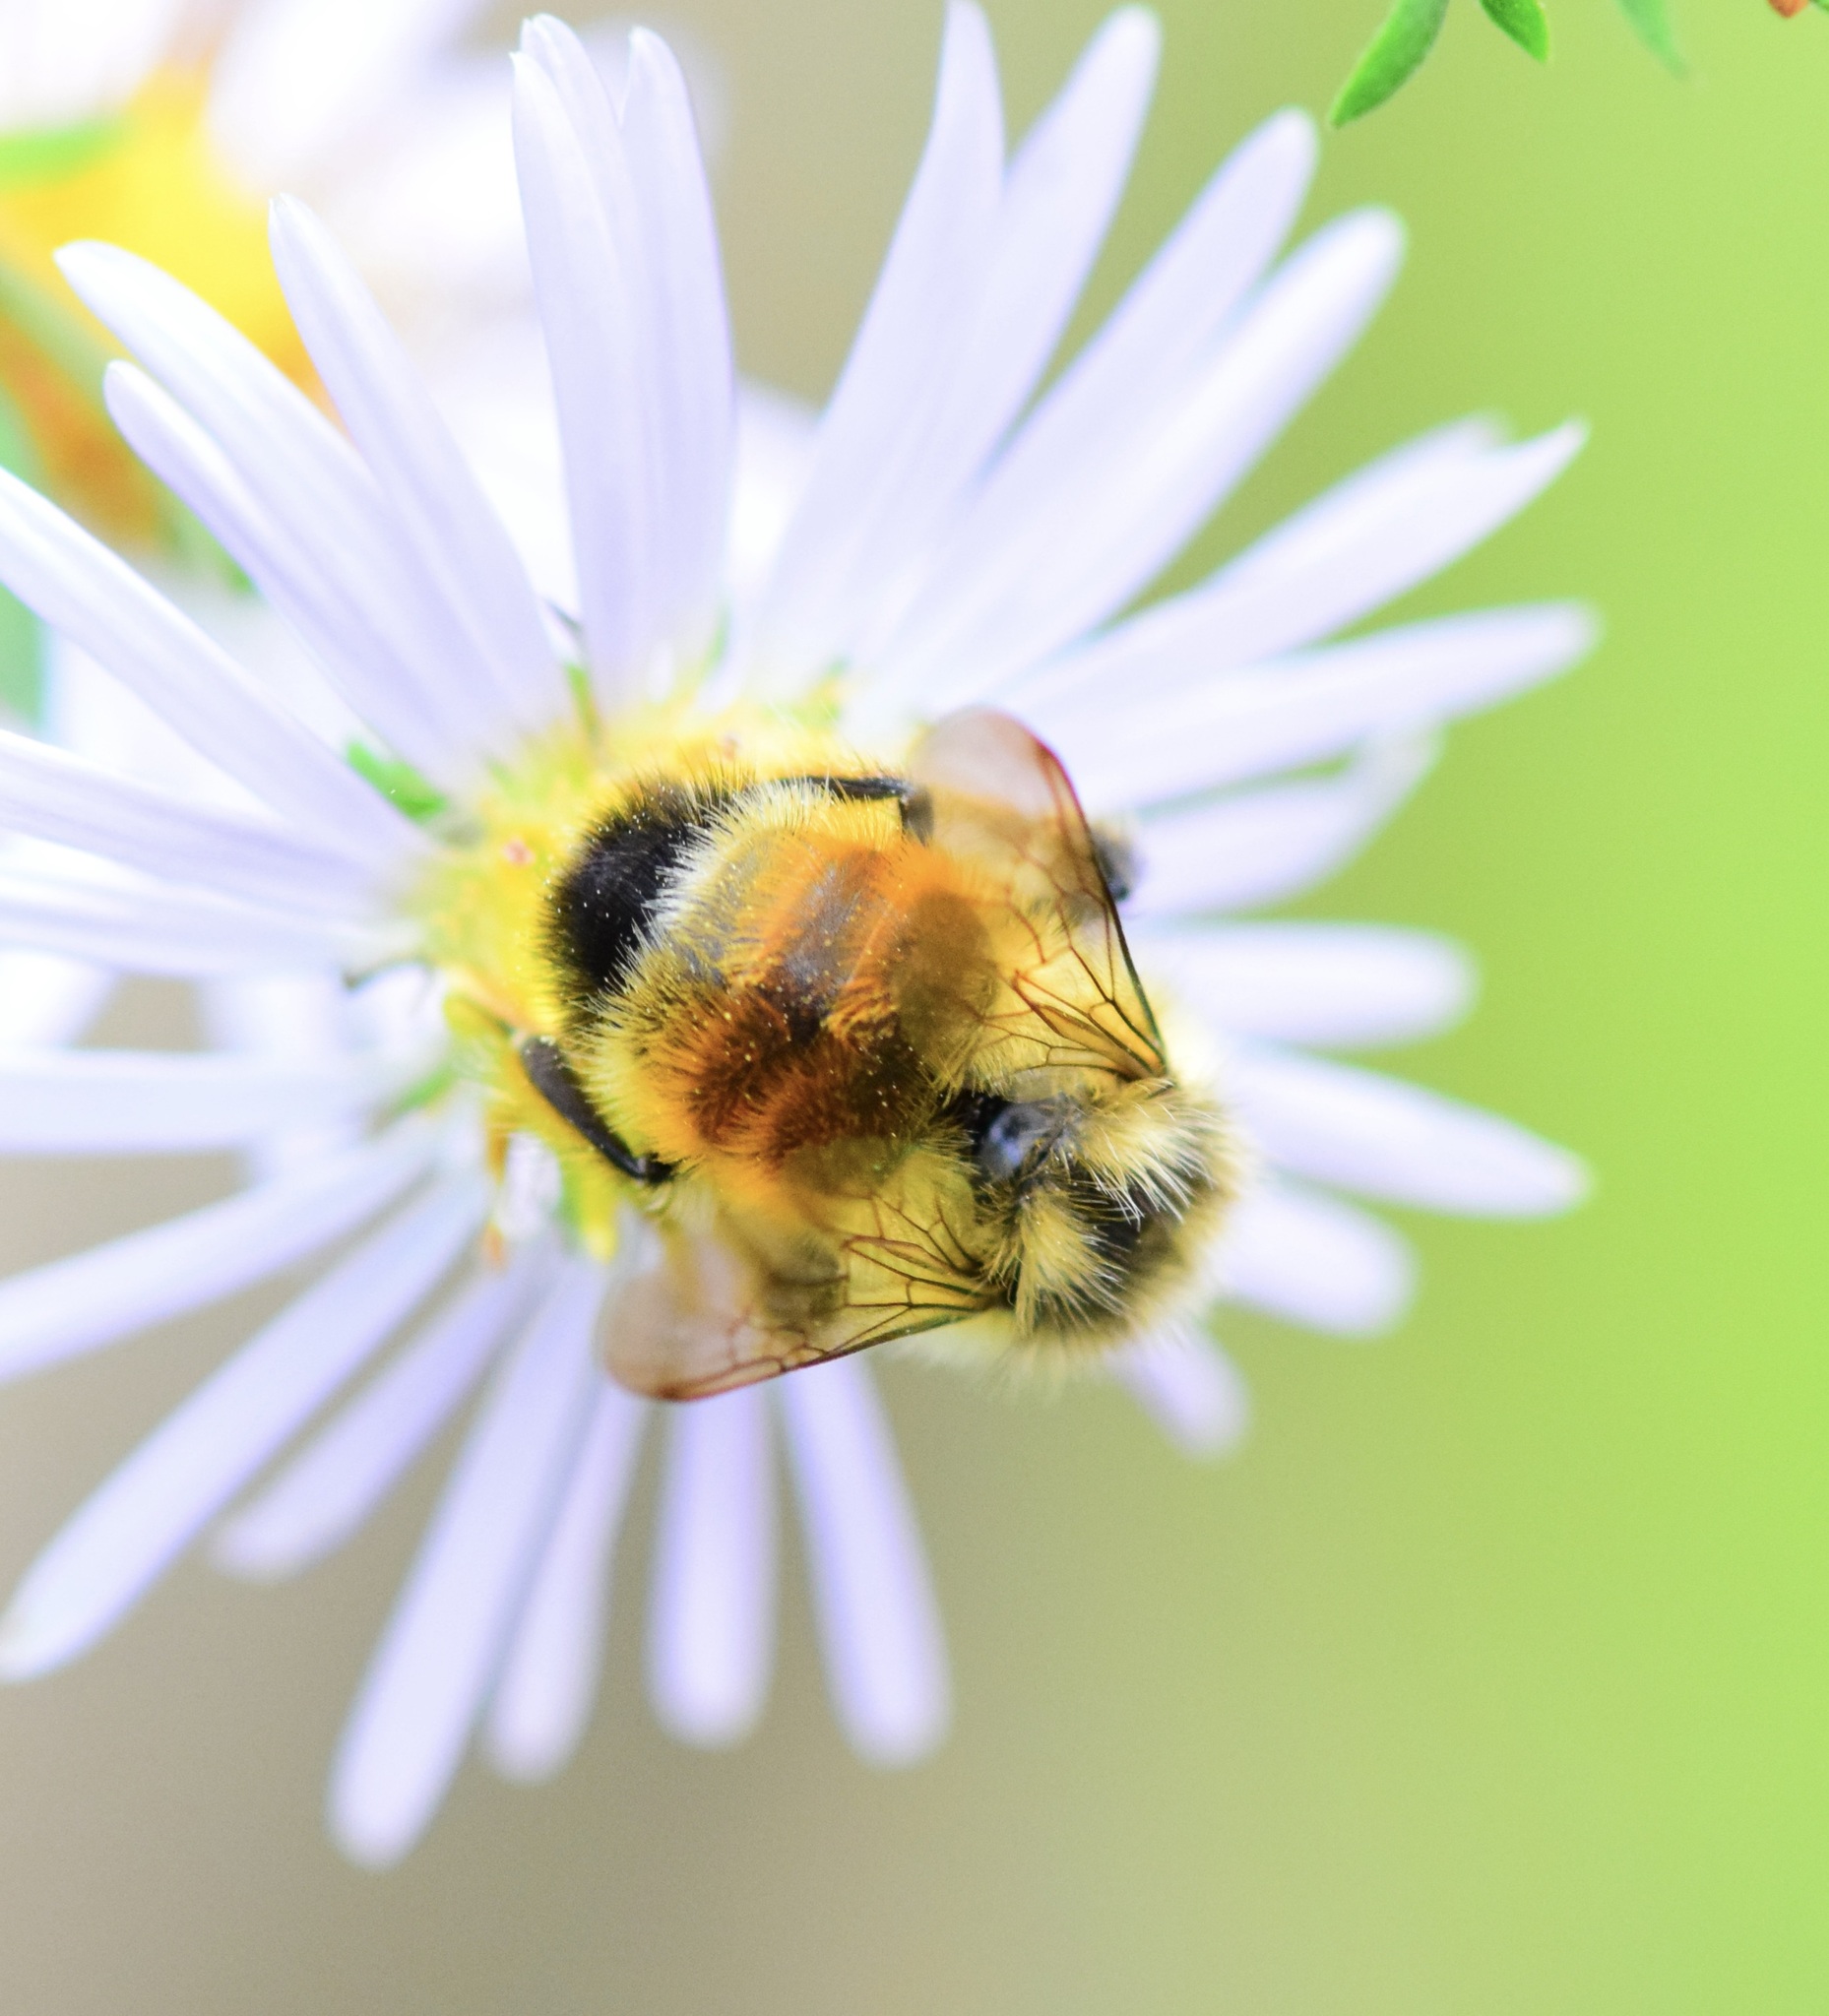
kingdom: Animalia
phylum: Arthropoda
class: Insecta
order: Hymenoptera
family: Apidae
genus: Bombus
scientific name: Bombus ternarius
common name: Tri-colored bumble bee
